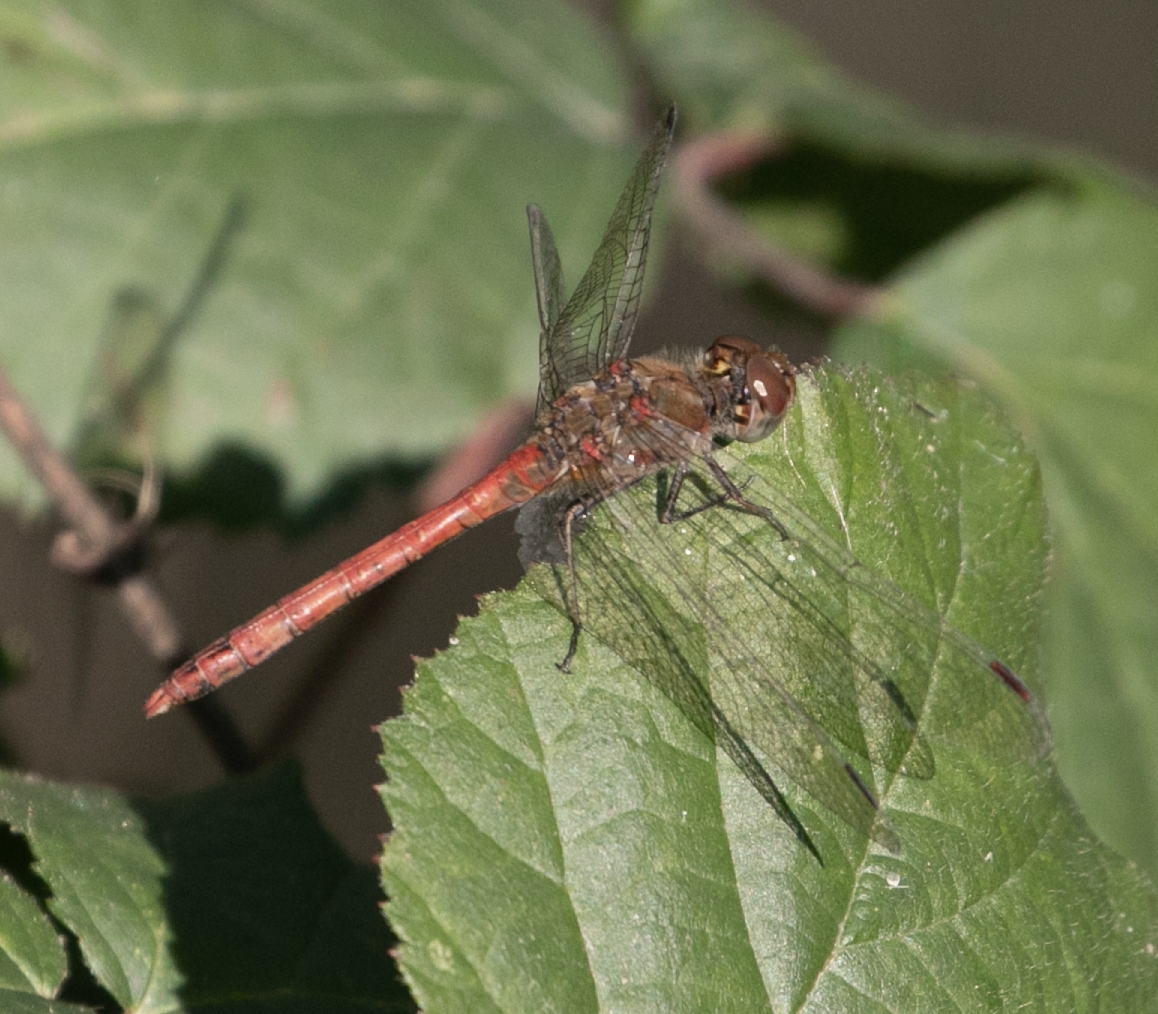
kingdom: Animalia
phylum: Arthropoda
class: Insecta
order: Odonata
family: Libellulidae
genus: Sympetrum
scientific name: Sympetrum striolatum
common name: Common darter
